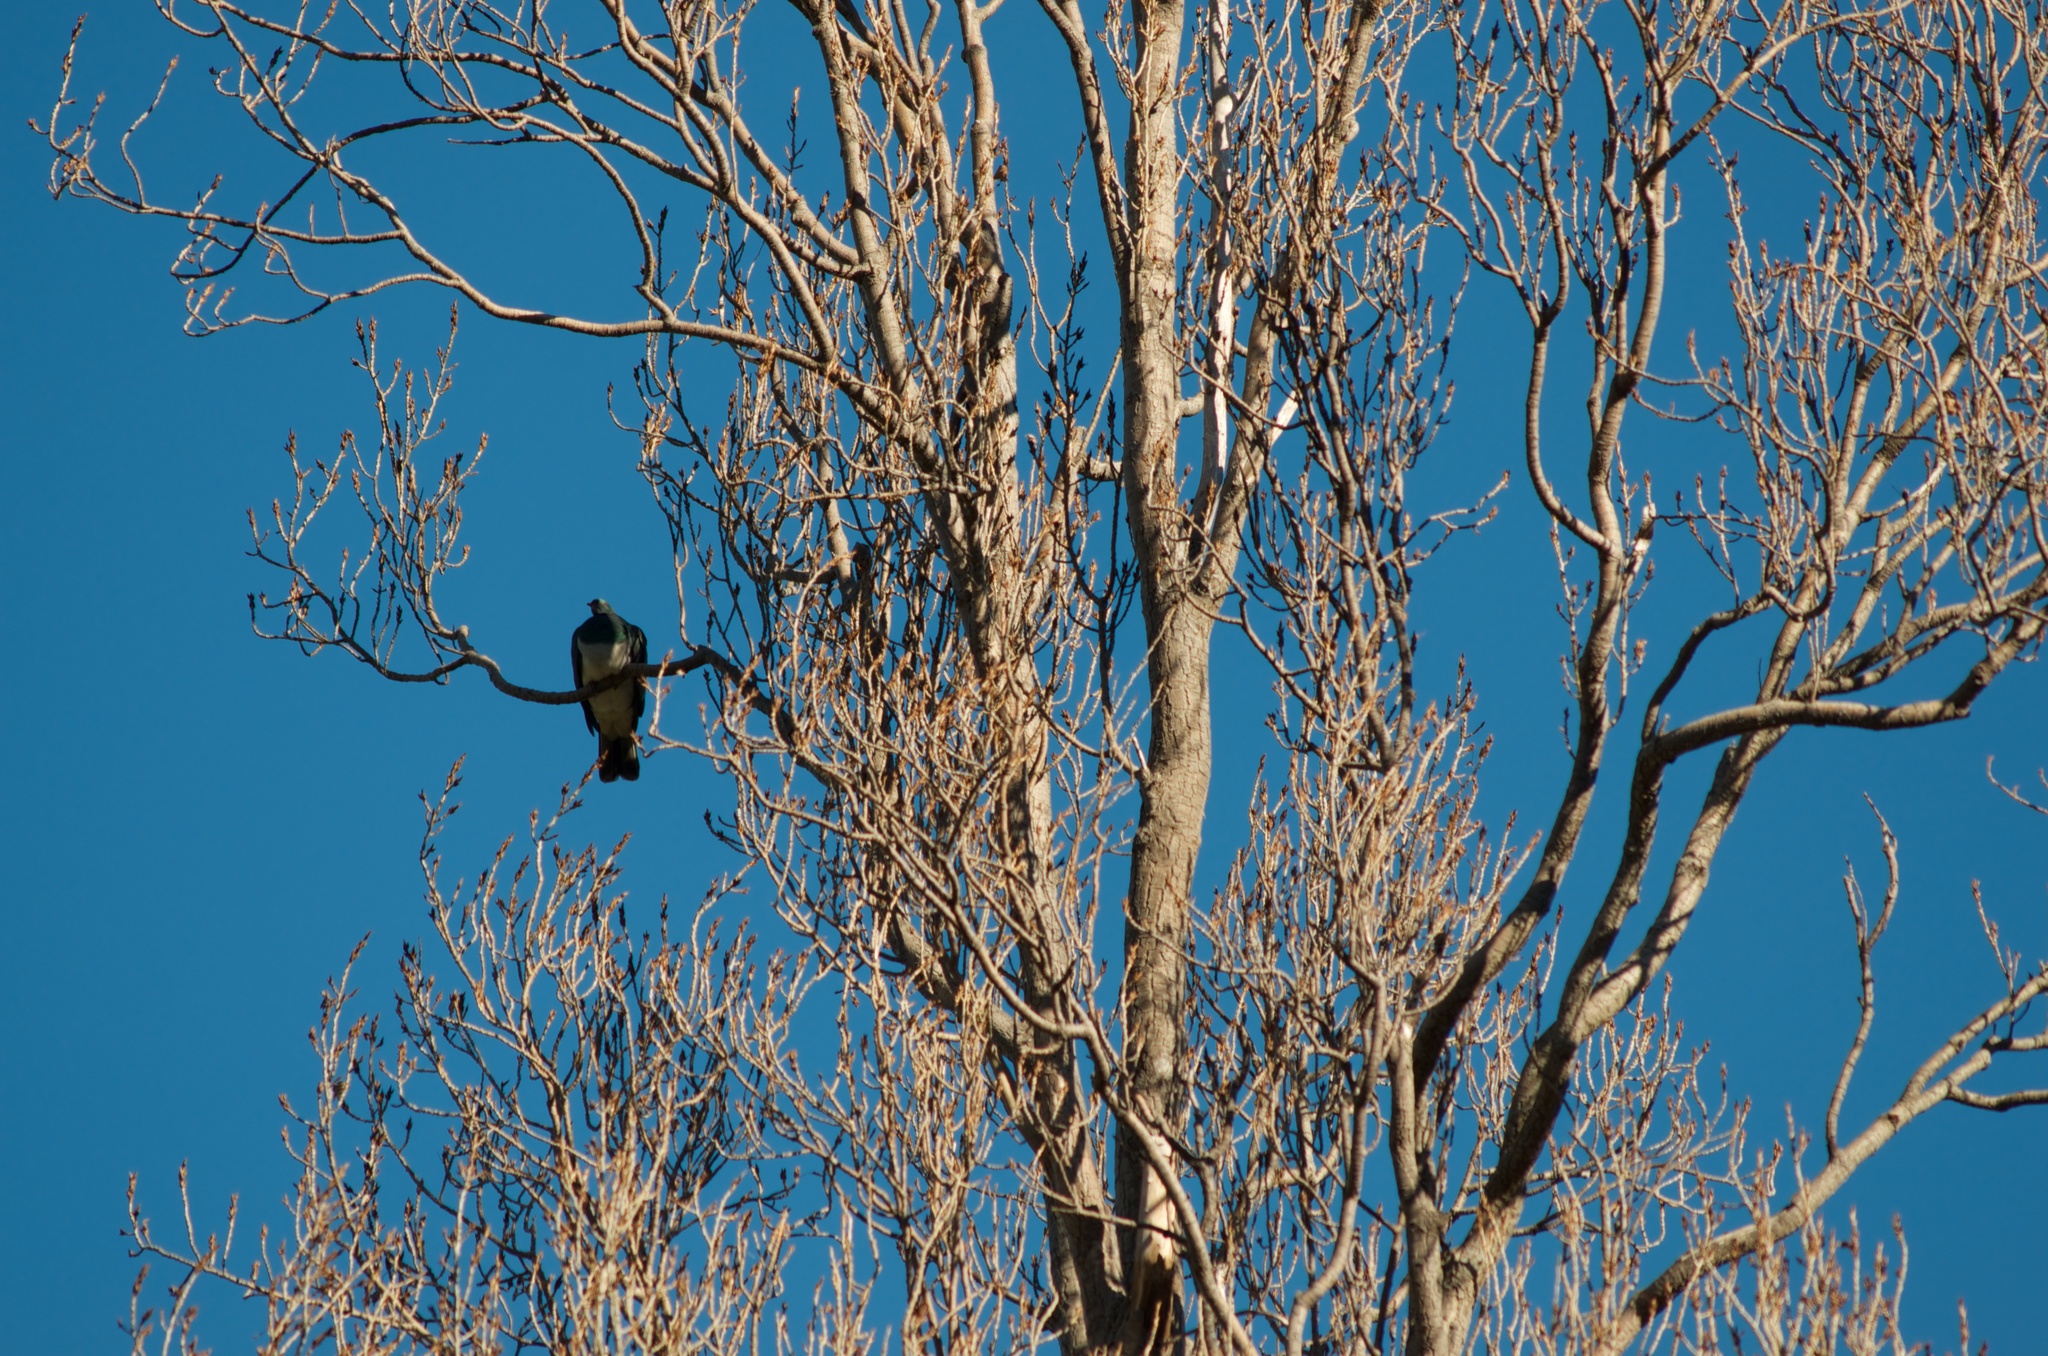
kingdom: Animalia
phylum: Chordata
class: Aves
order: Columbiformes
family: Columbidae
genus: Hemiphaga
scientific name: Hemiphaga novaeseelandiae
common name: New zealand pigeon
